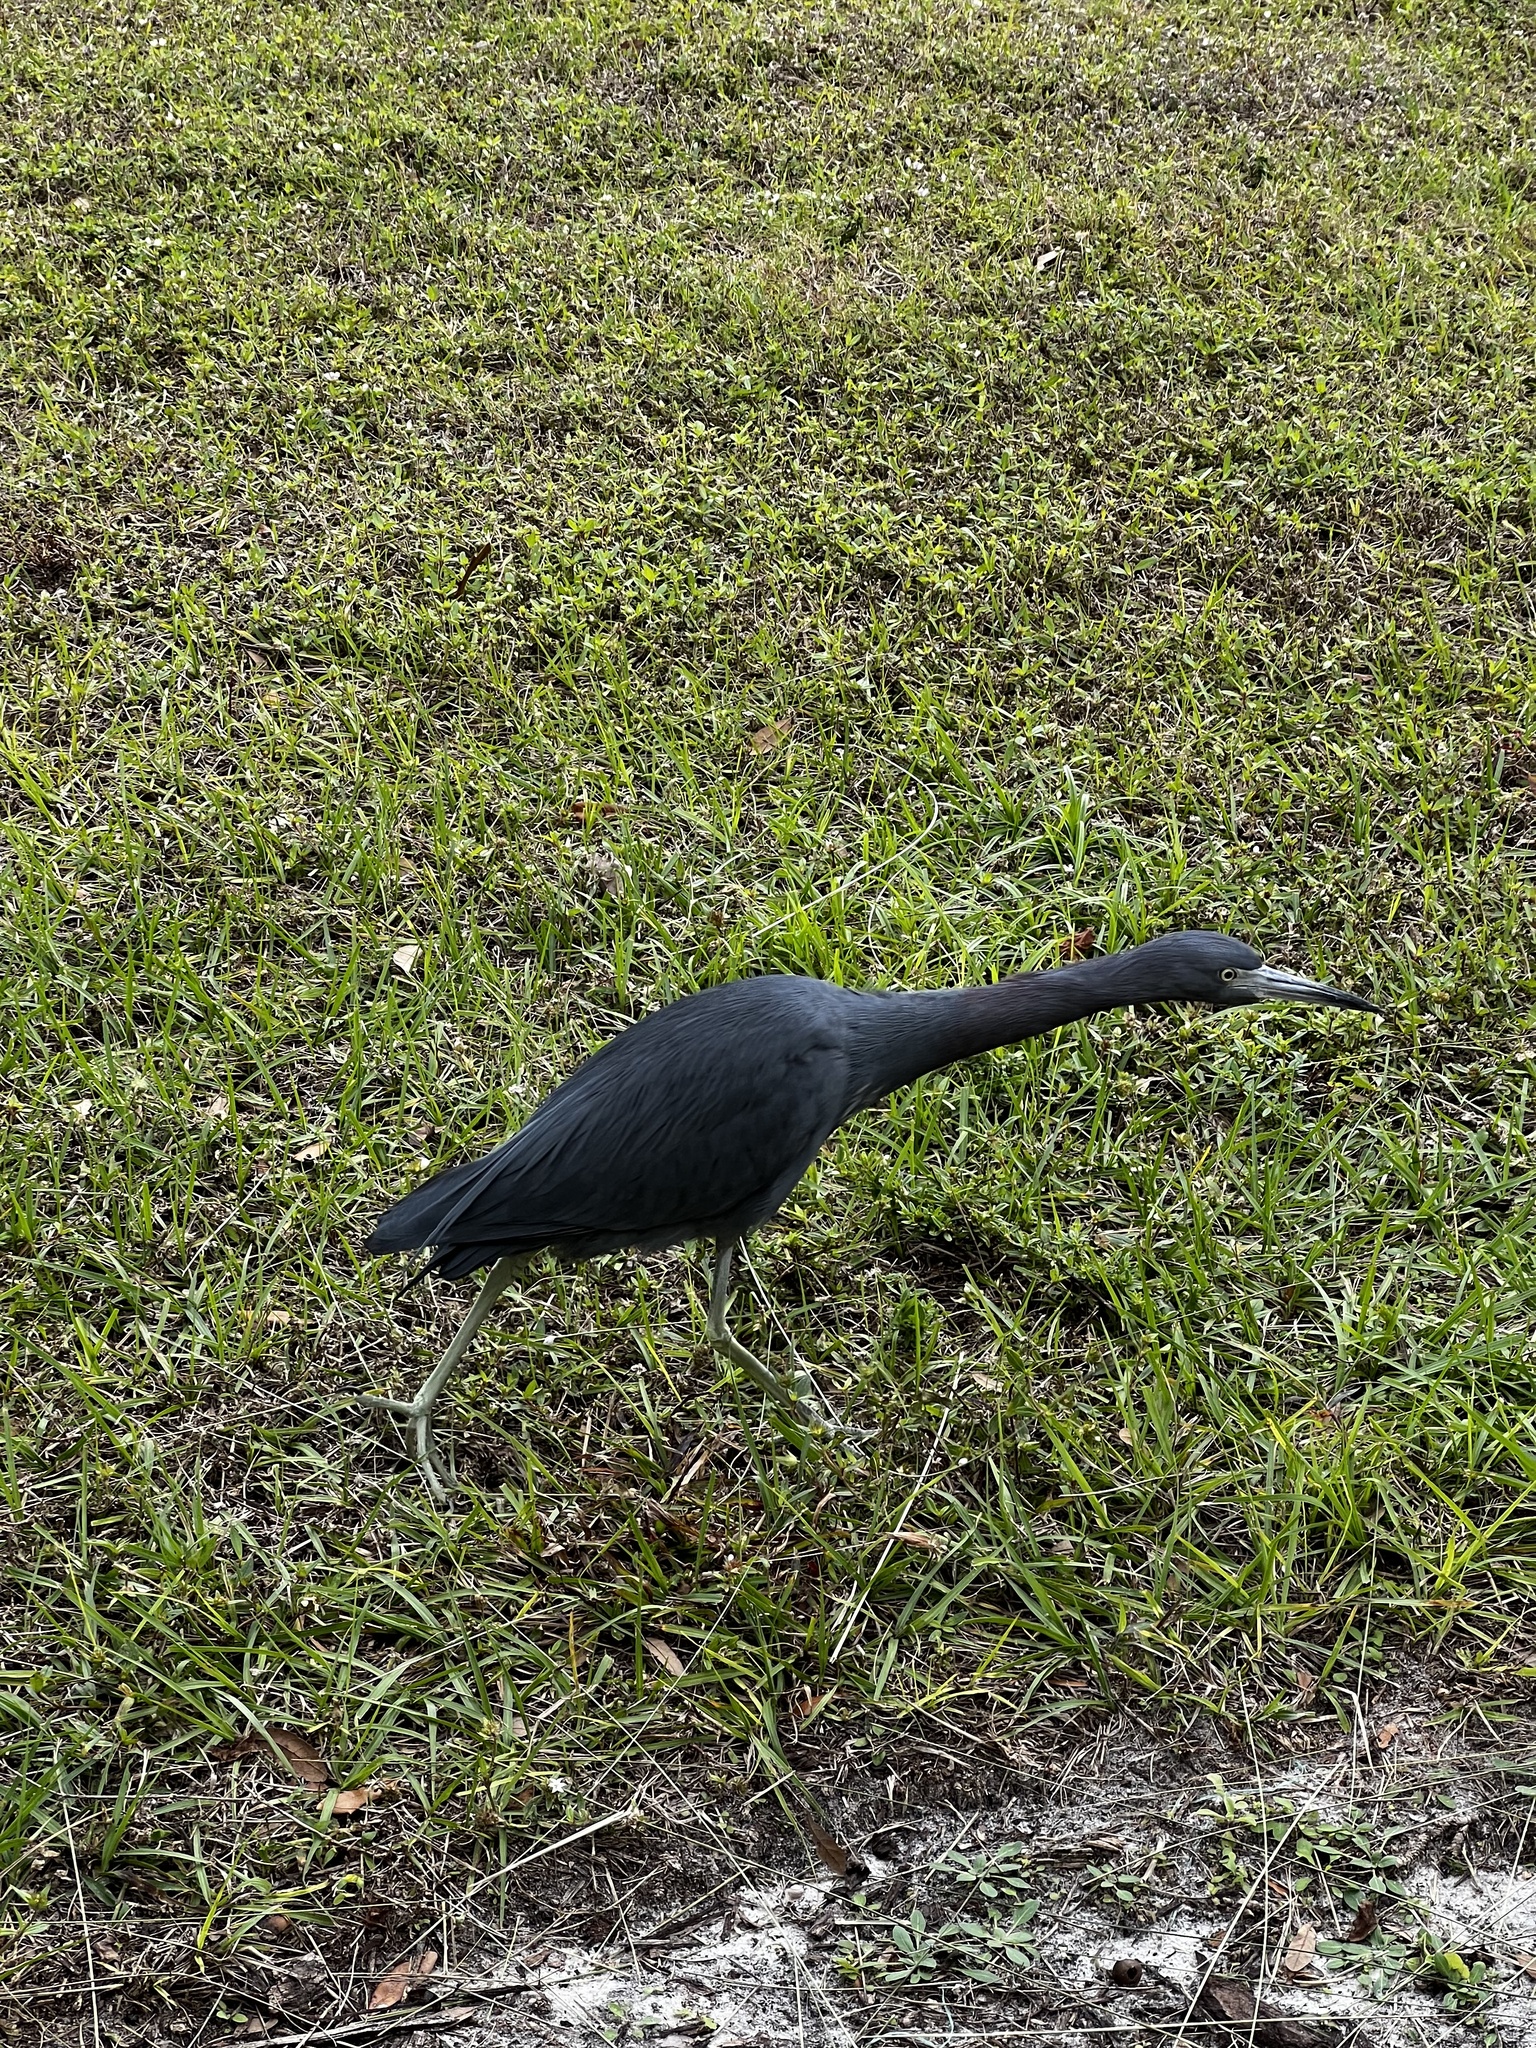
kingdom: Animalia
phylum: Chordata
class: Aves
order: Pelecaniformes
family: Ardeidae
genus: Egretta
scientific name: Egretta caerulea
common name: Little blue heron
